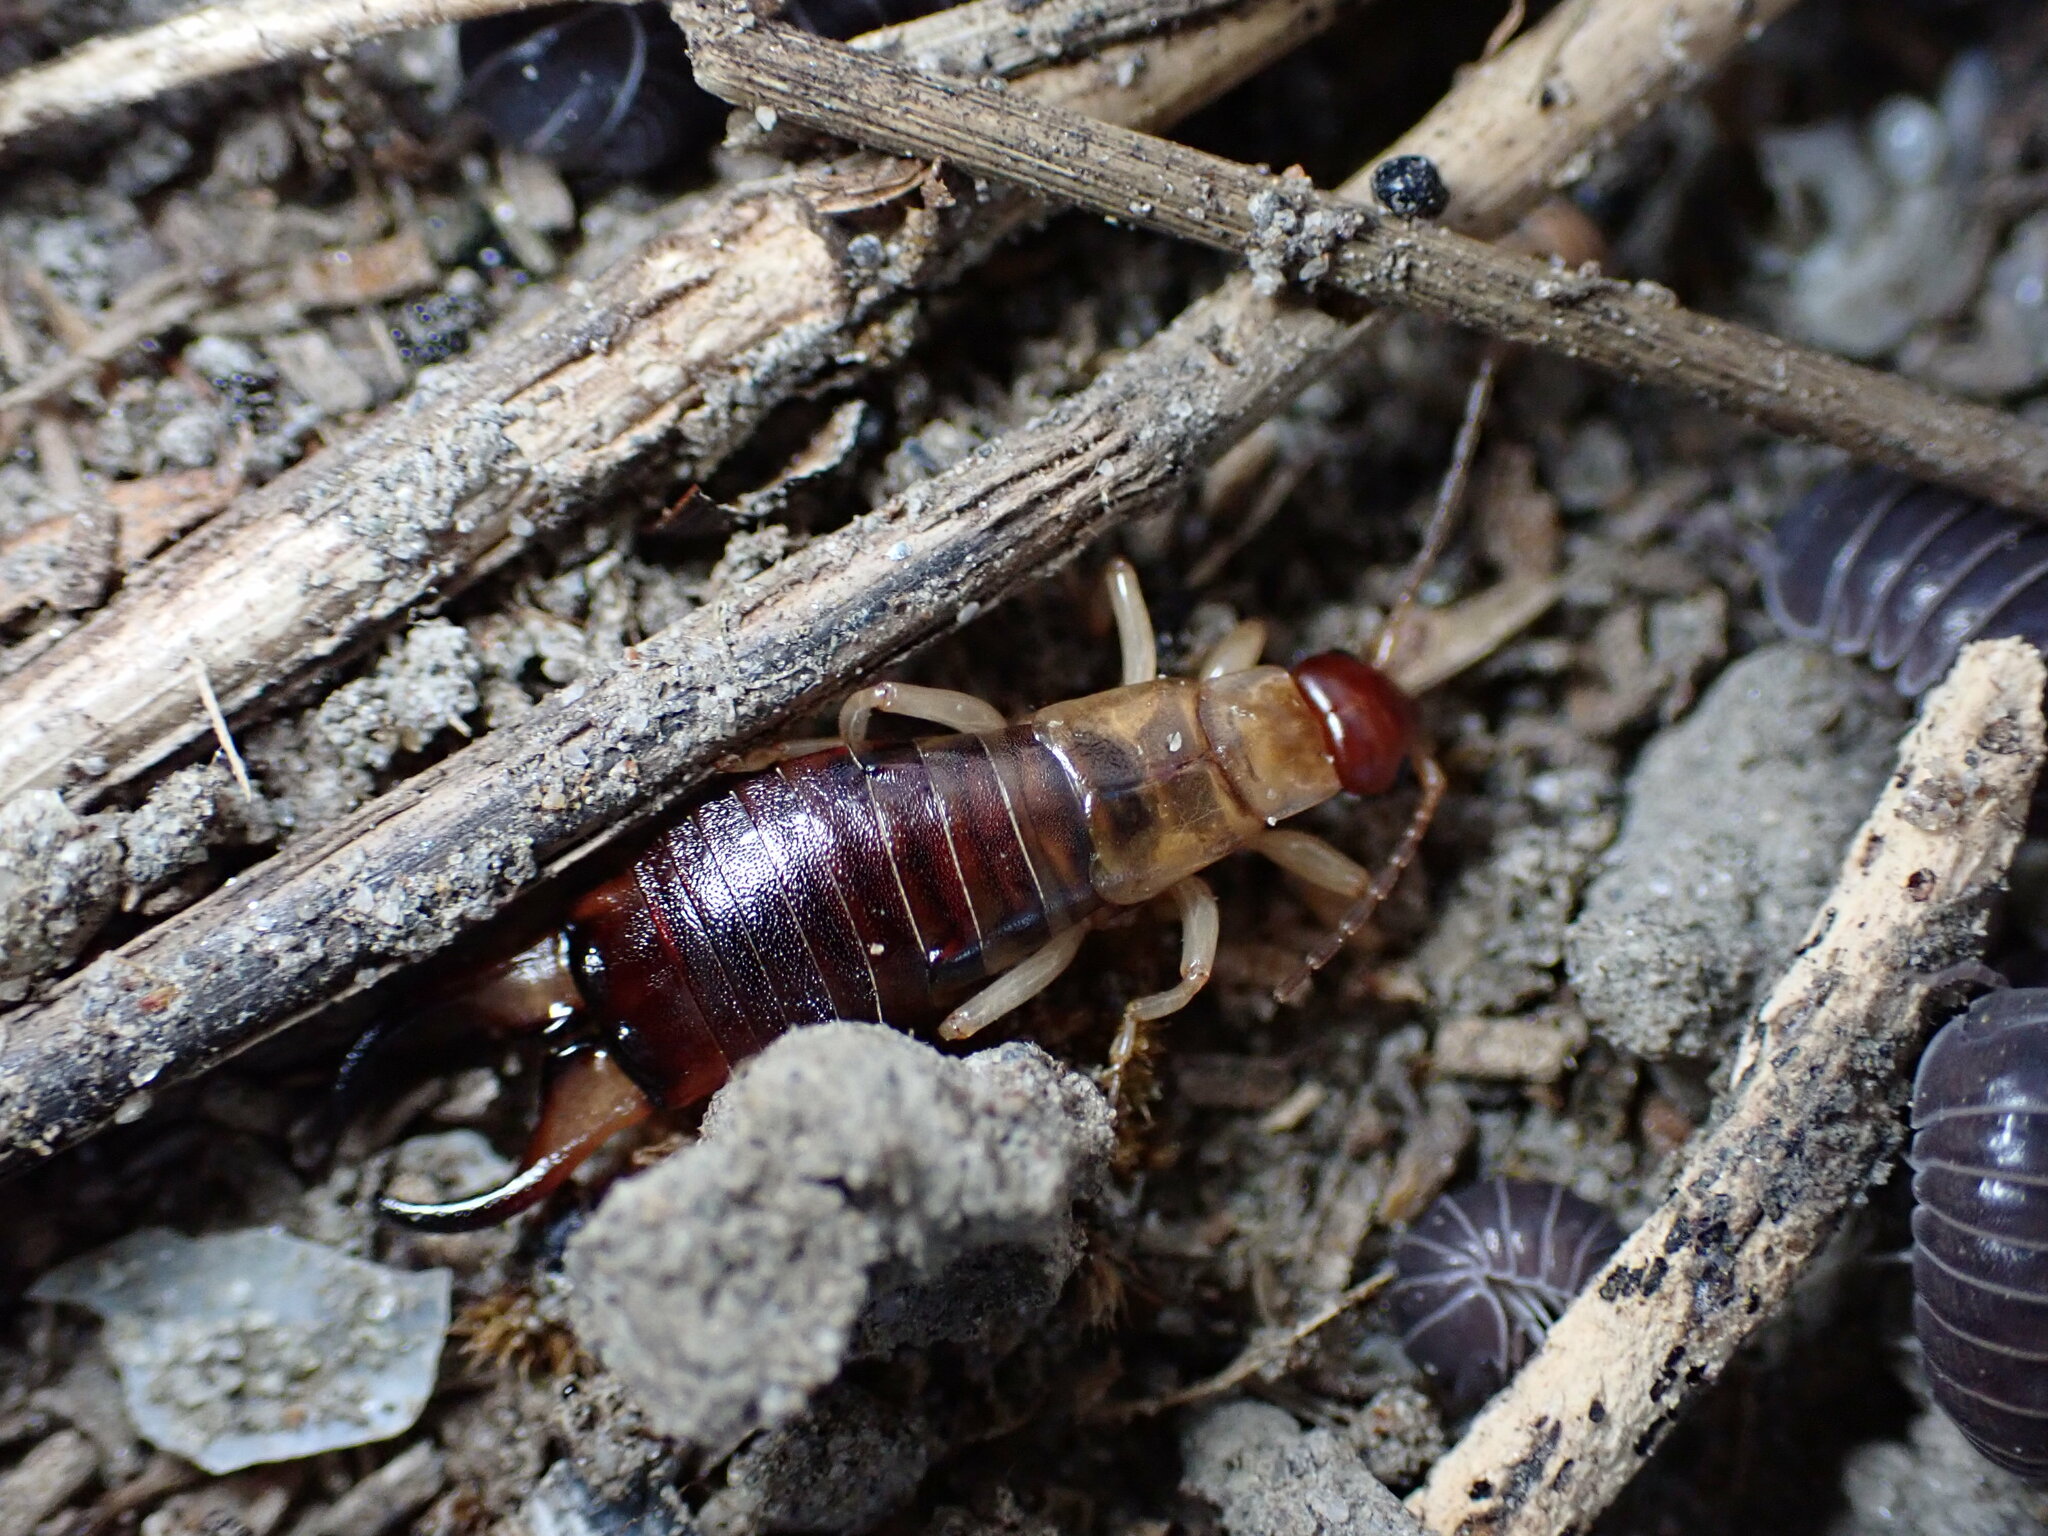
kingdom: Animalia
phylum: Arthropoda
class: Insecta
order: Dermaptera
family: Forficulidae
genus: Forficula
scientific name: Forficula decipiens
